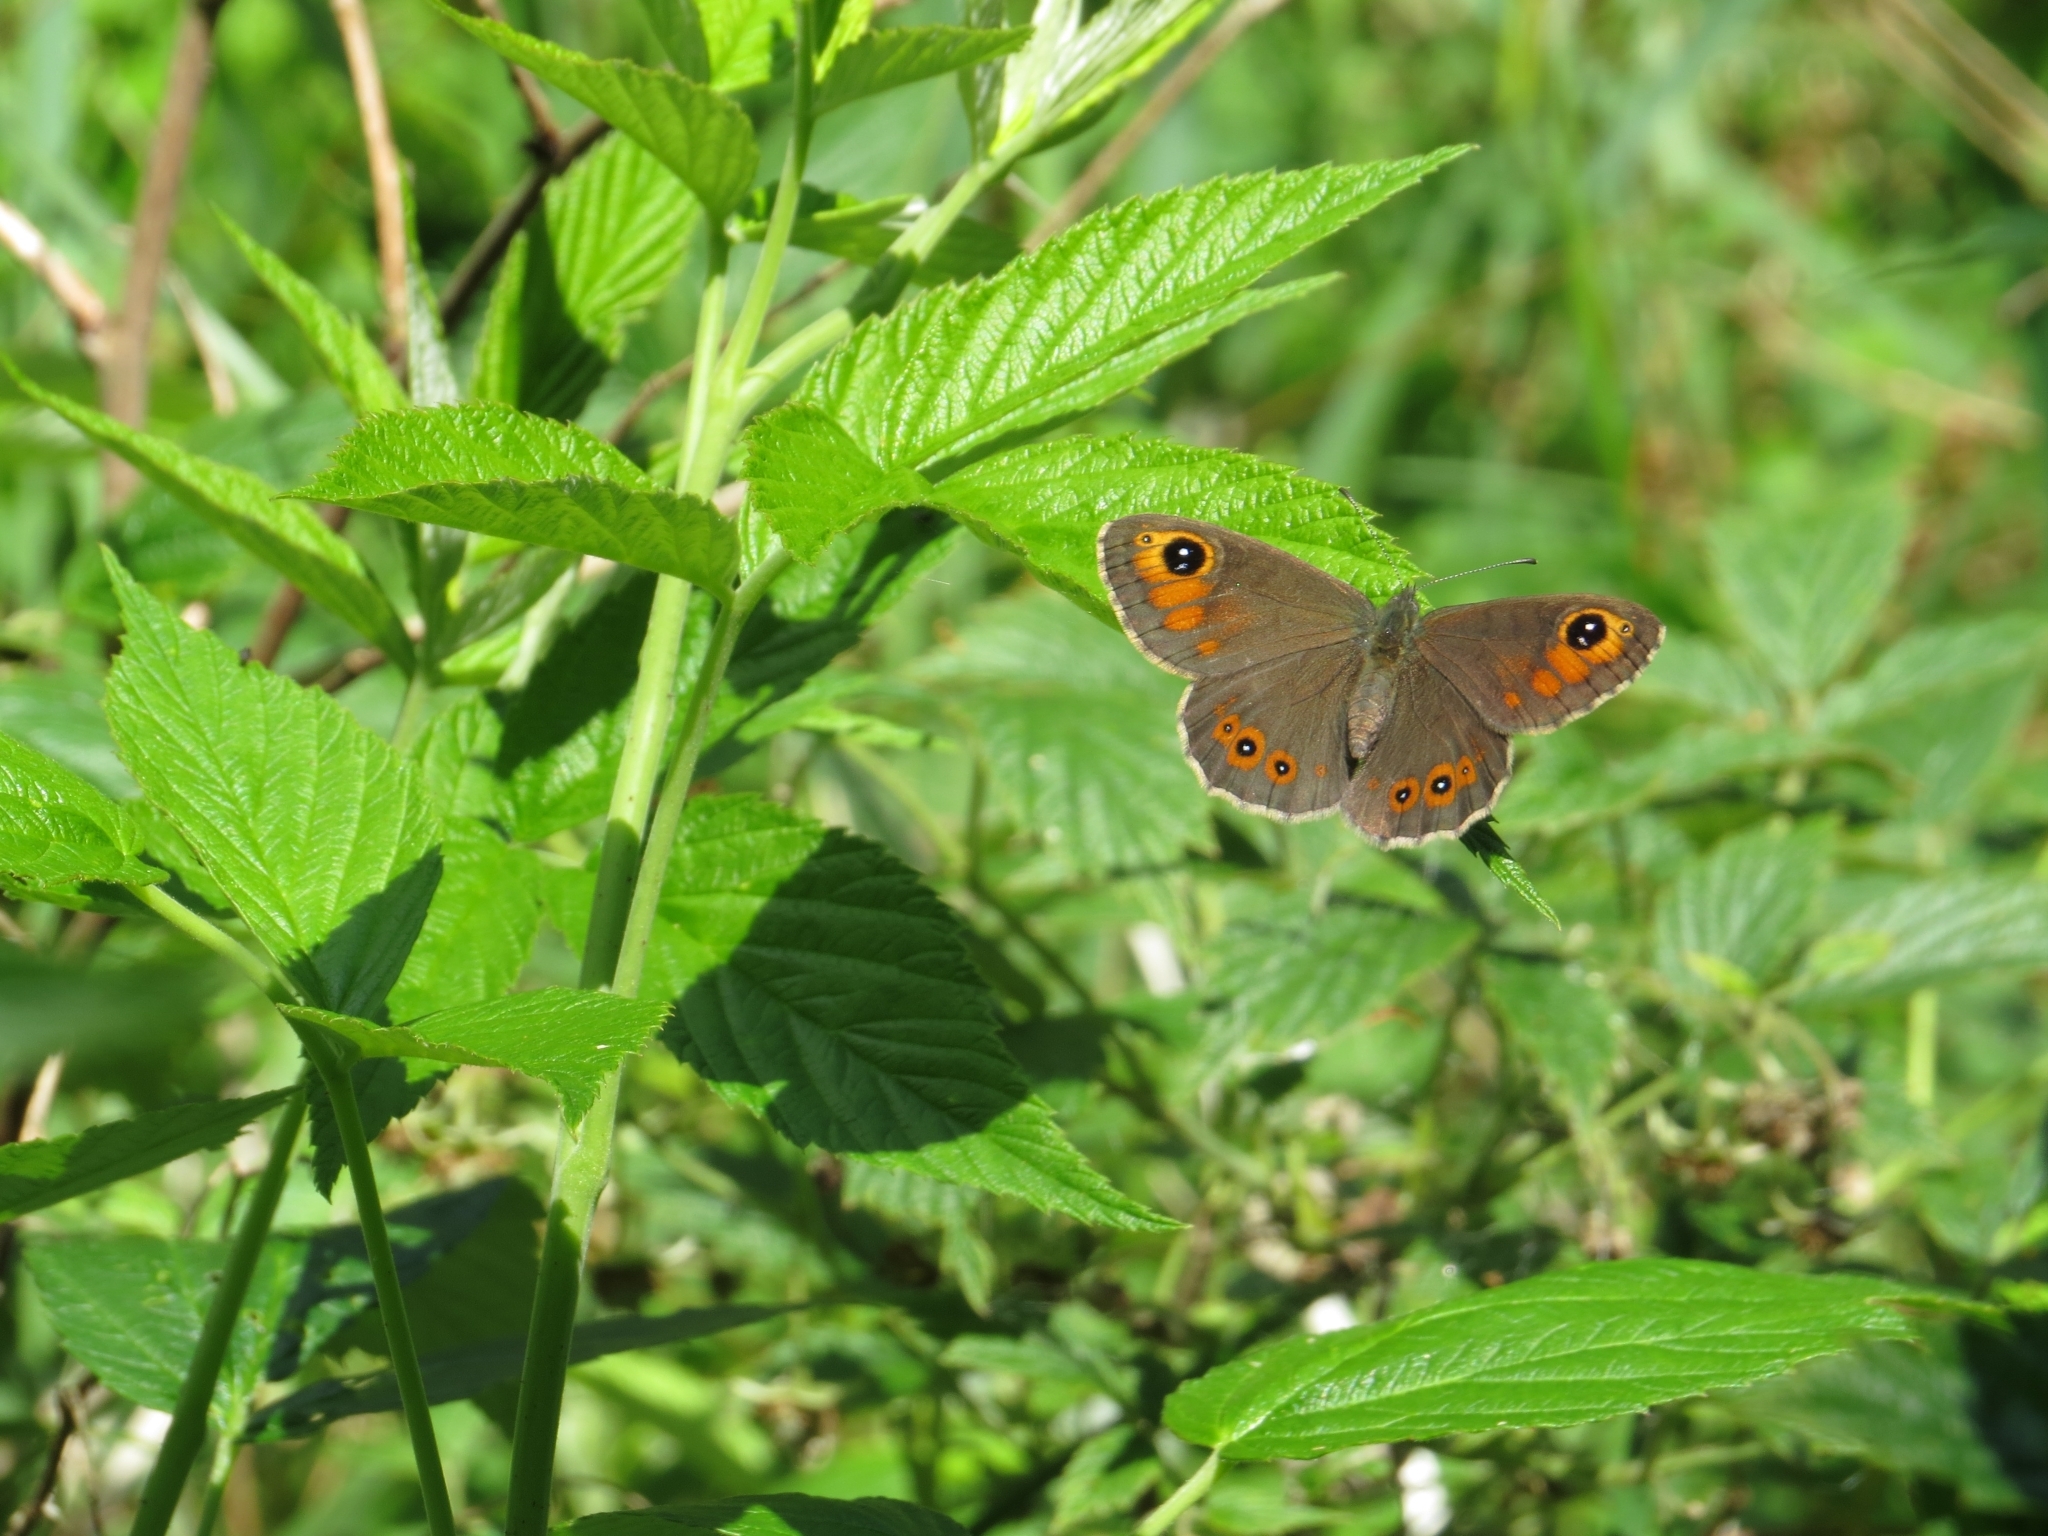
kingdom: Animalia
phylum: Arthropoda
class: Insecta
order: Lepidoptera
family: Nymphalidae
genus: Pararge
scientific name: Pararge Lasiommata maera
